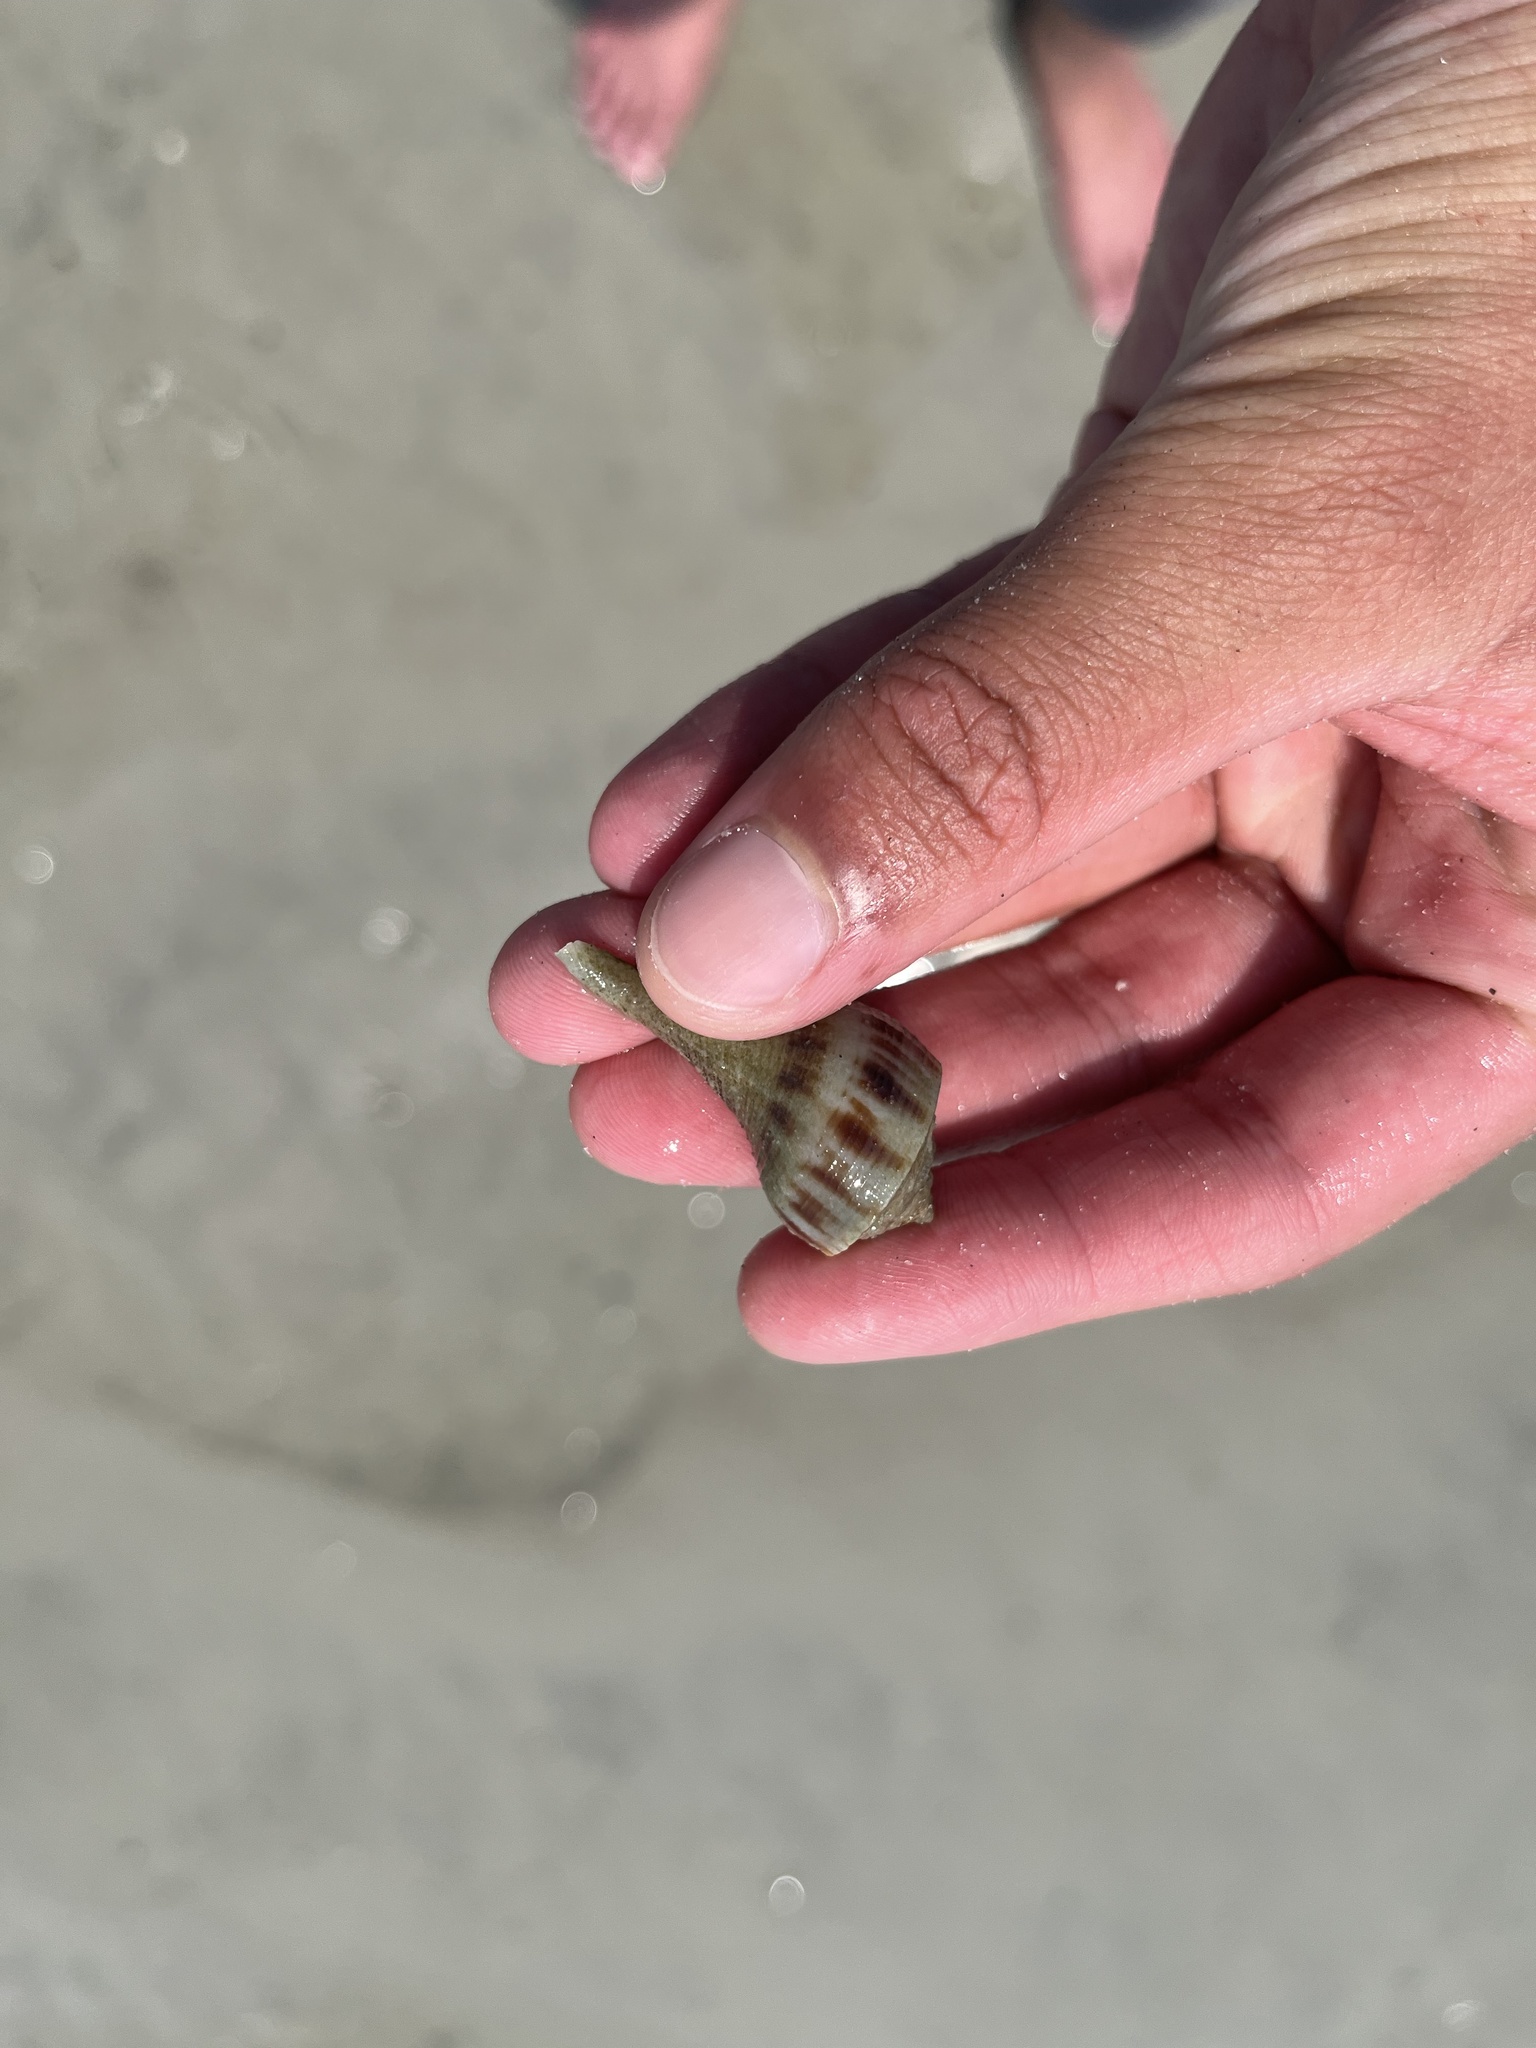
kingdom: Animalia
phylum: Mollusca
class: Gastropoda
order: Neogastropoda
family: Busyconidae
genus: Fulguropsis
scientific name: Fulguropsis pyruloides
